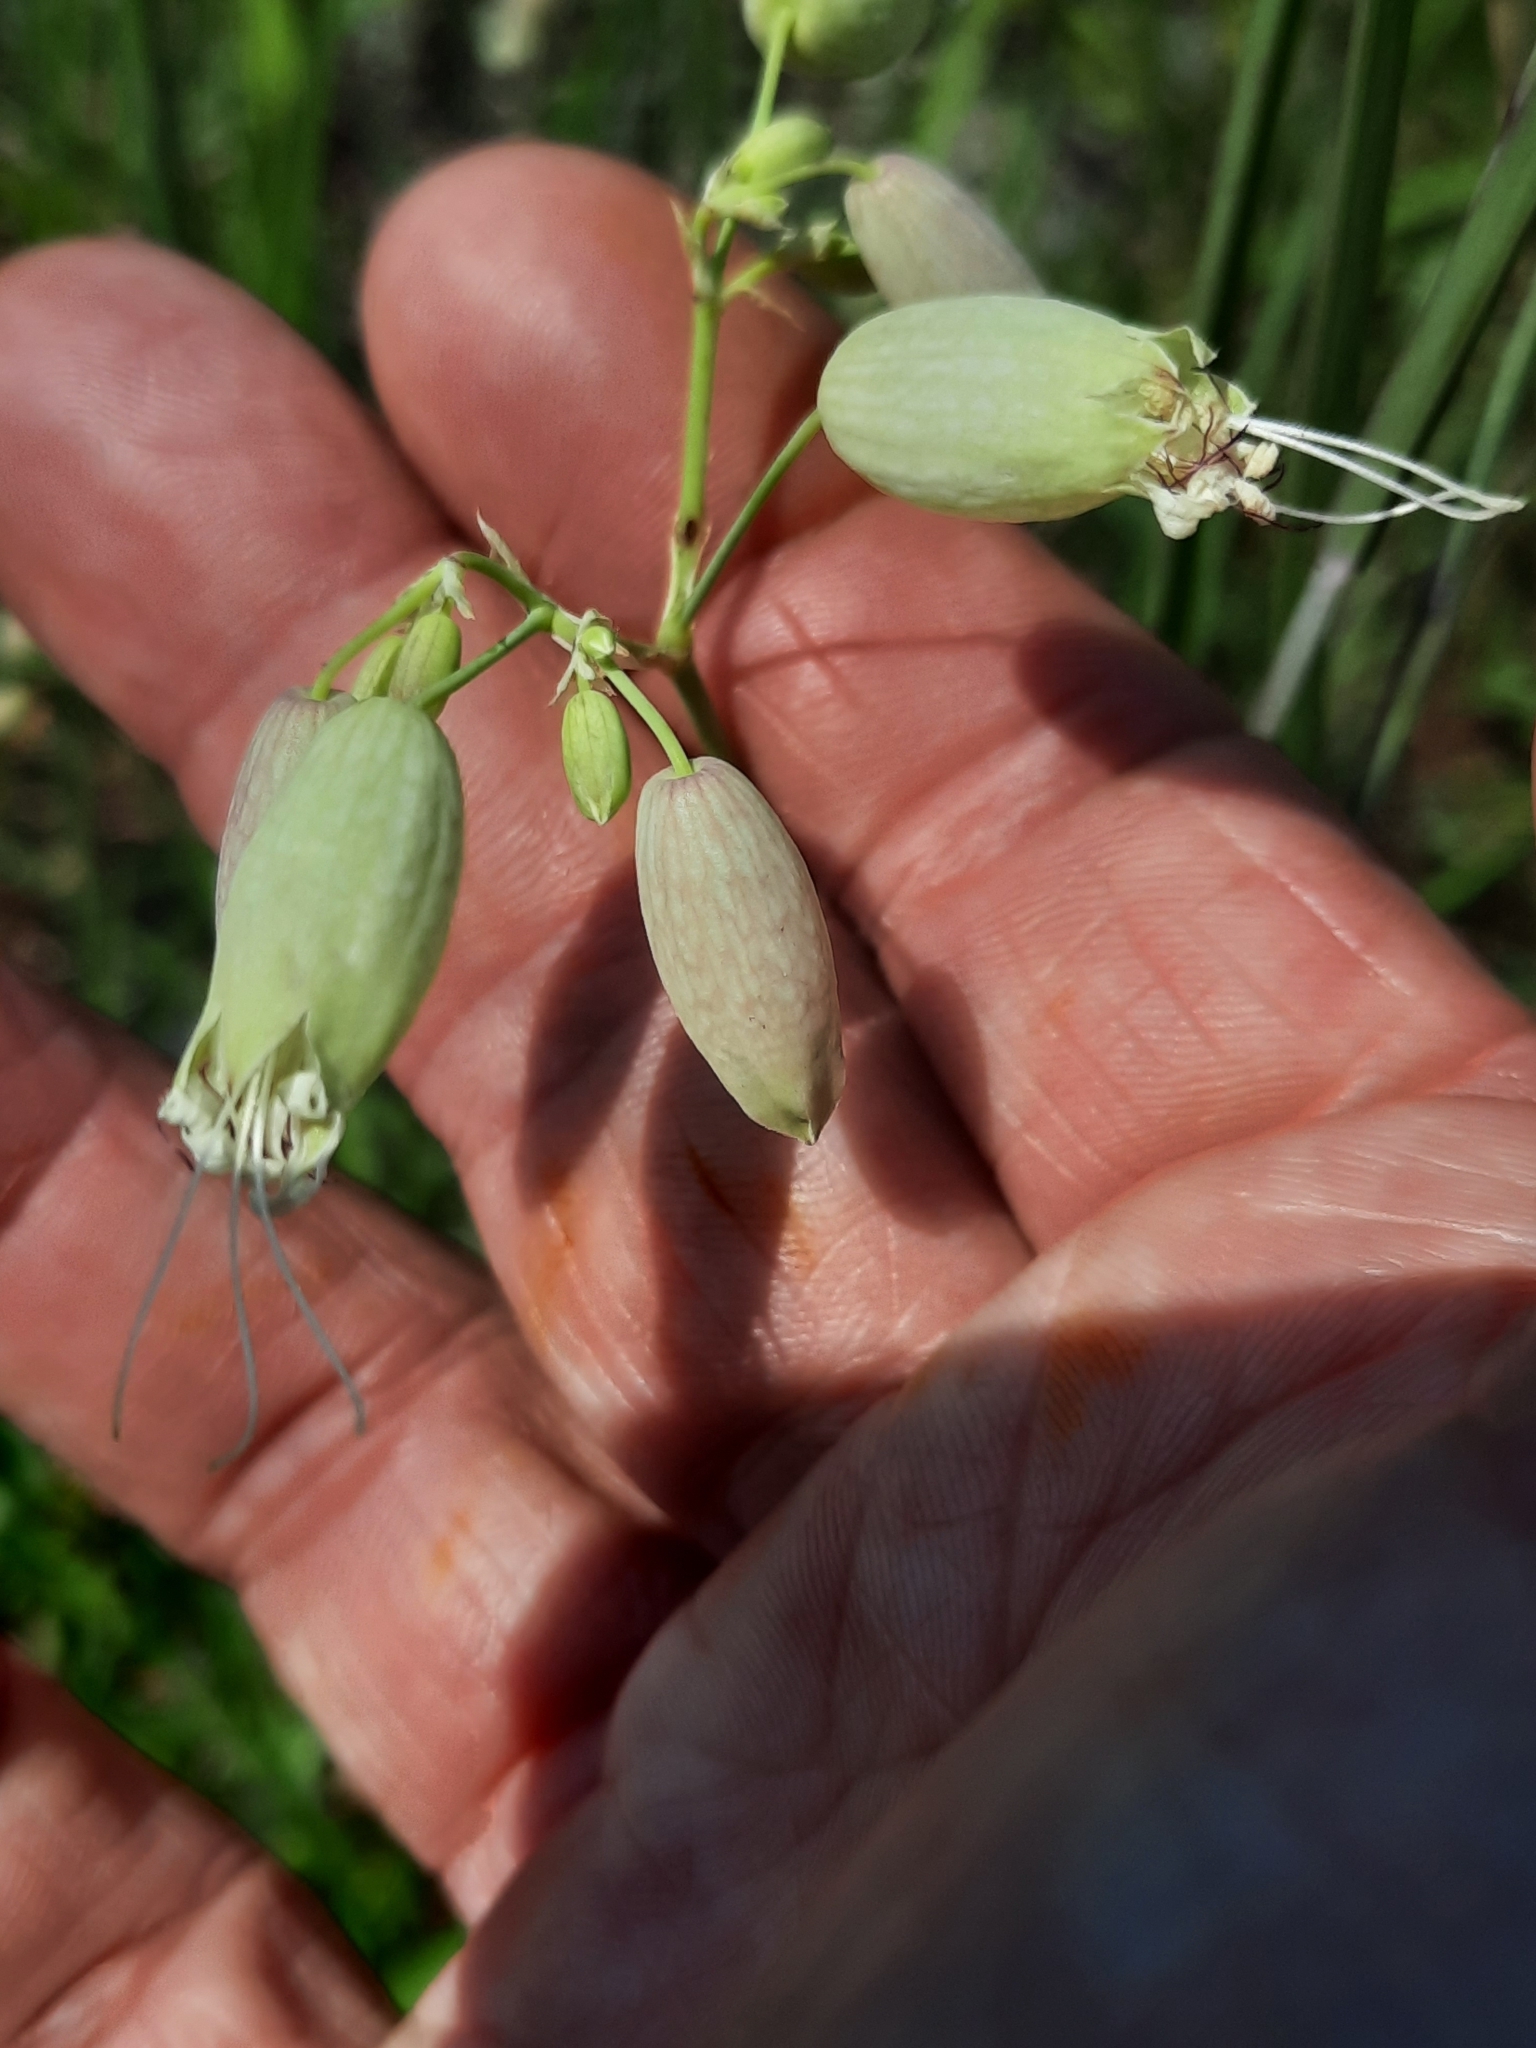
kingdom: Plantae
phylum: Tracheophyta
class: Magnoliopsida
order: Caryophyllales
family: Caryophyllaceae
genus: Silene
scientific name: Silene vulgaris
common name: Bladder campion
